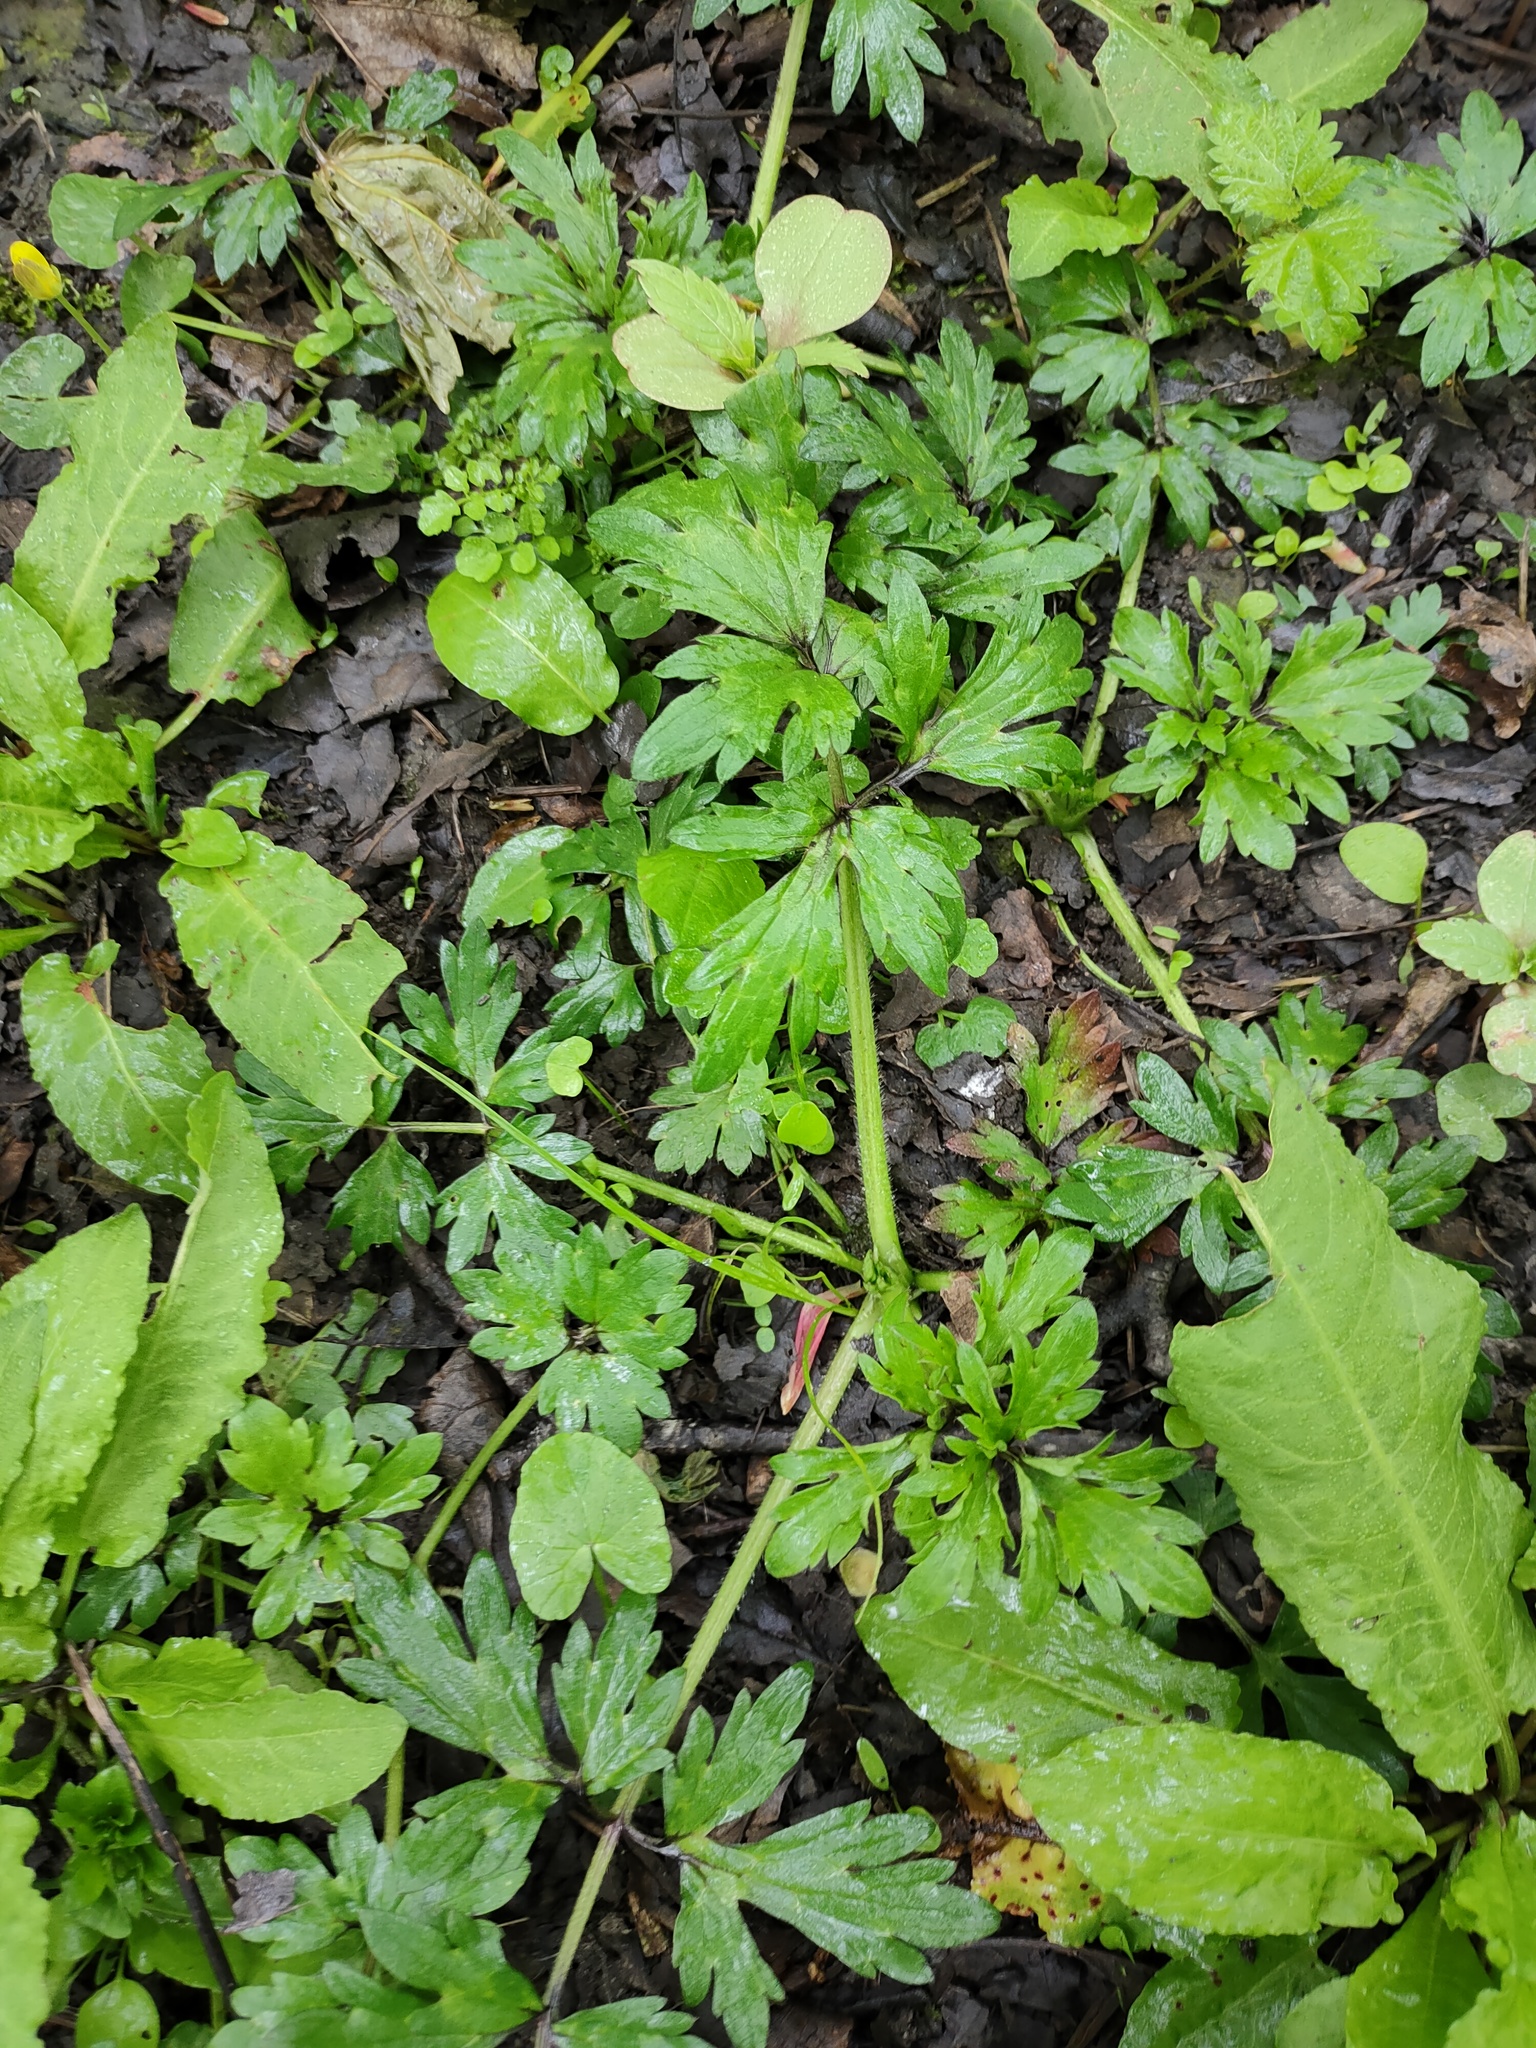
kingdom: Plantae
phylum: Tracheophyta
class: Magnoliopsida
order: Ranunculales
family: Ranunculaceae
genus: Ranunculus
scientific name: Ranunculus repens
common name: Creeping buttercup
